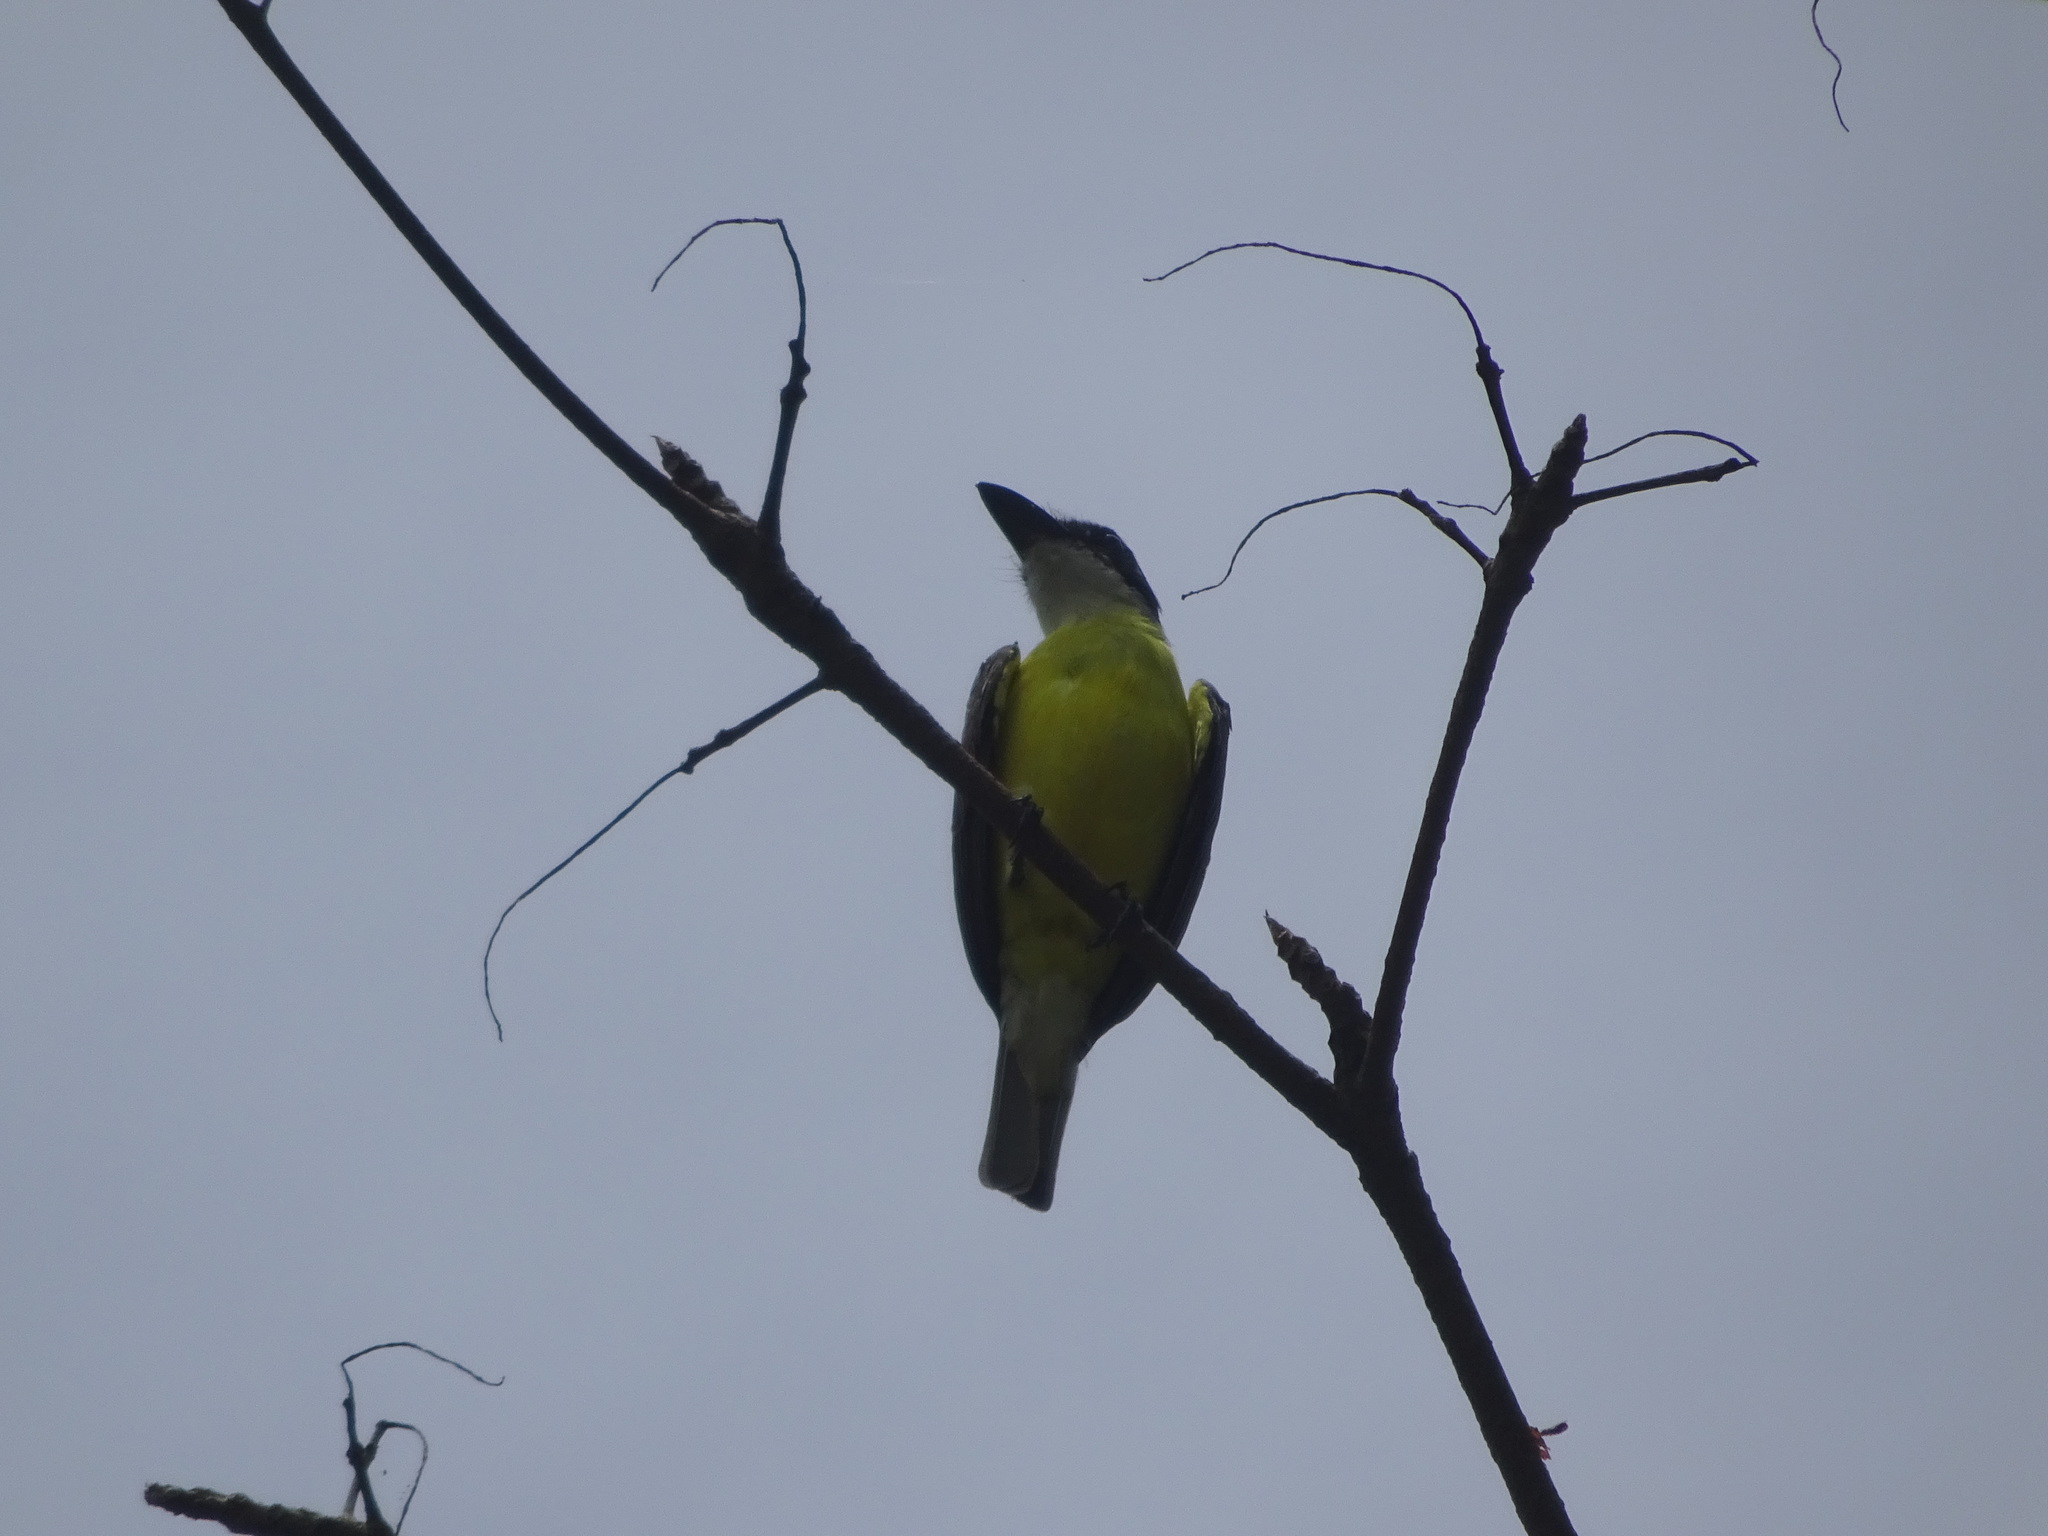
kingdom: Animalia
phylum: Chordata
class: Aves
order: Passeriformes
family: Tyrannidae
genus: Megarynchus
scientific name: Megarynchus pitangua
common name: Boat-billed flycatcher
